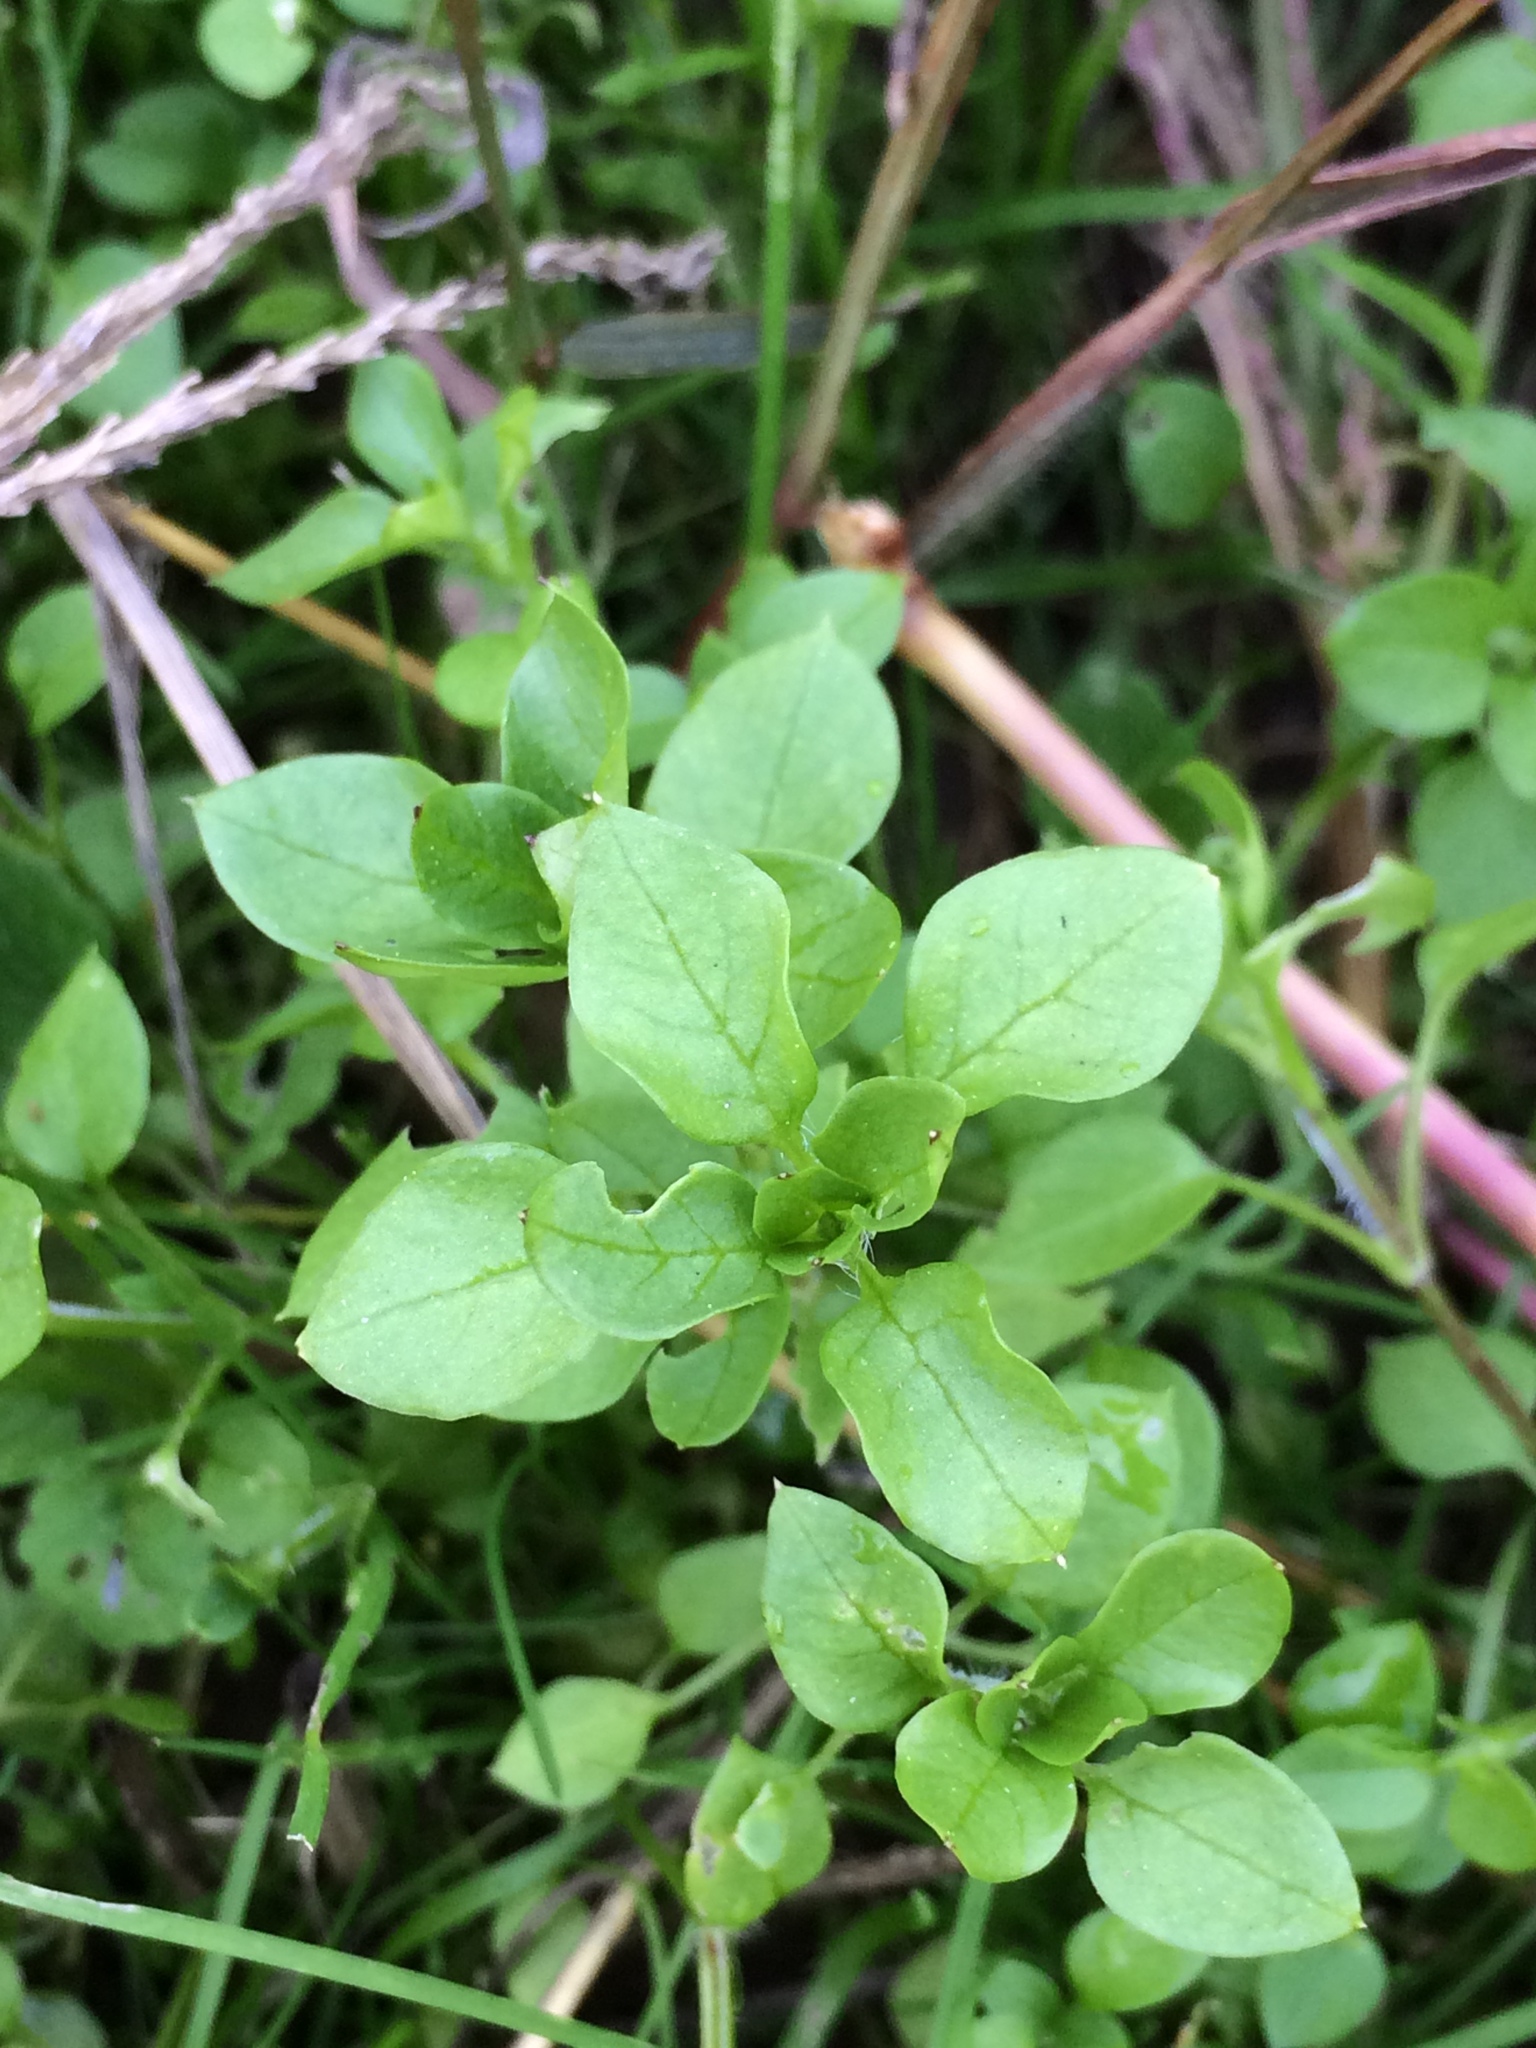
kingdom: Plantae
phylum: Tracheophyta
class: Magnoliopsida
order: Caryophyllales
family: Caryophyllaceae
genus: Stellaria
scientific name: Stellaria media
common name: Common chickweed
